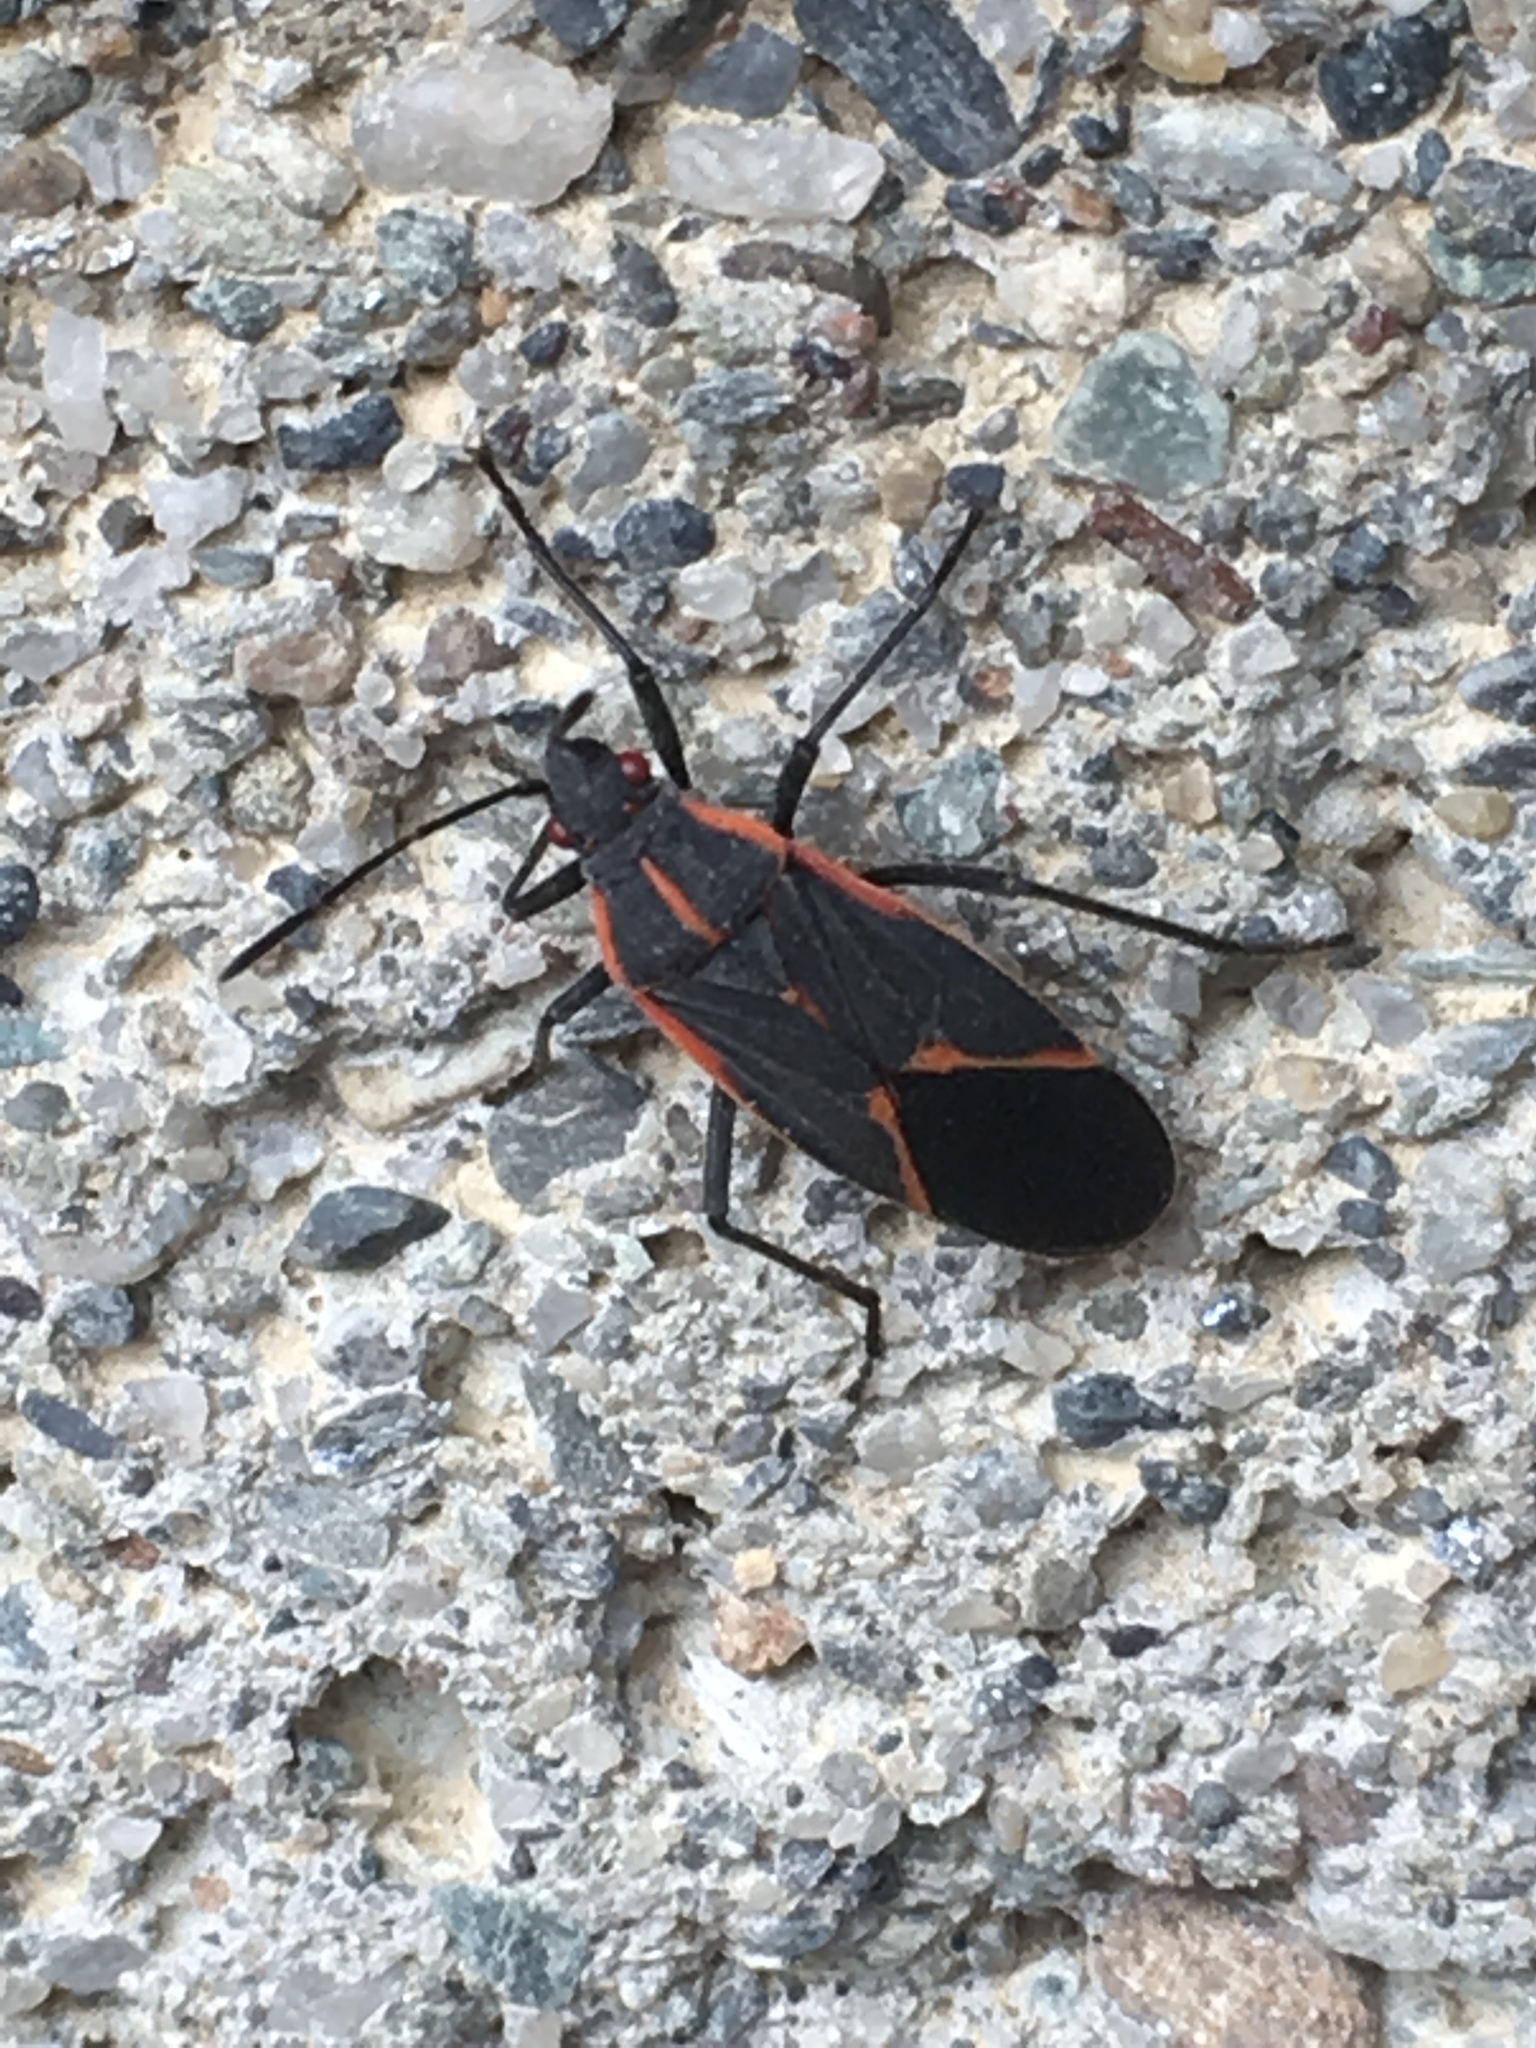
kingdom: Animalia
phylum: Arthropoda
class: Insecta
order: Hemiptera
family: Rhopalidae
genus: Boisea
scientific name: Boisea trivittata
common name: Boxelder bug
